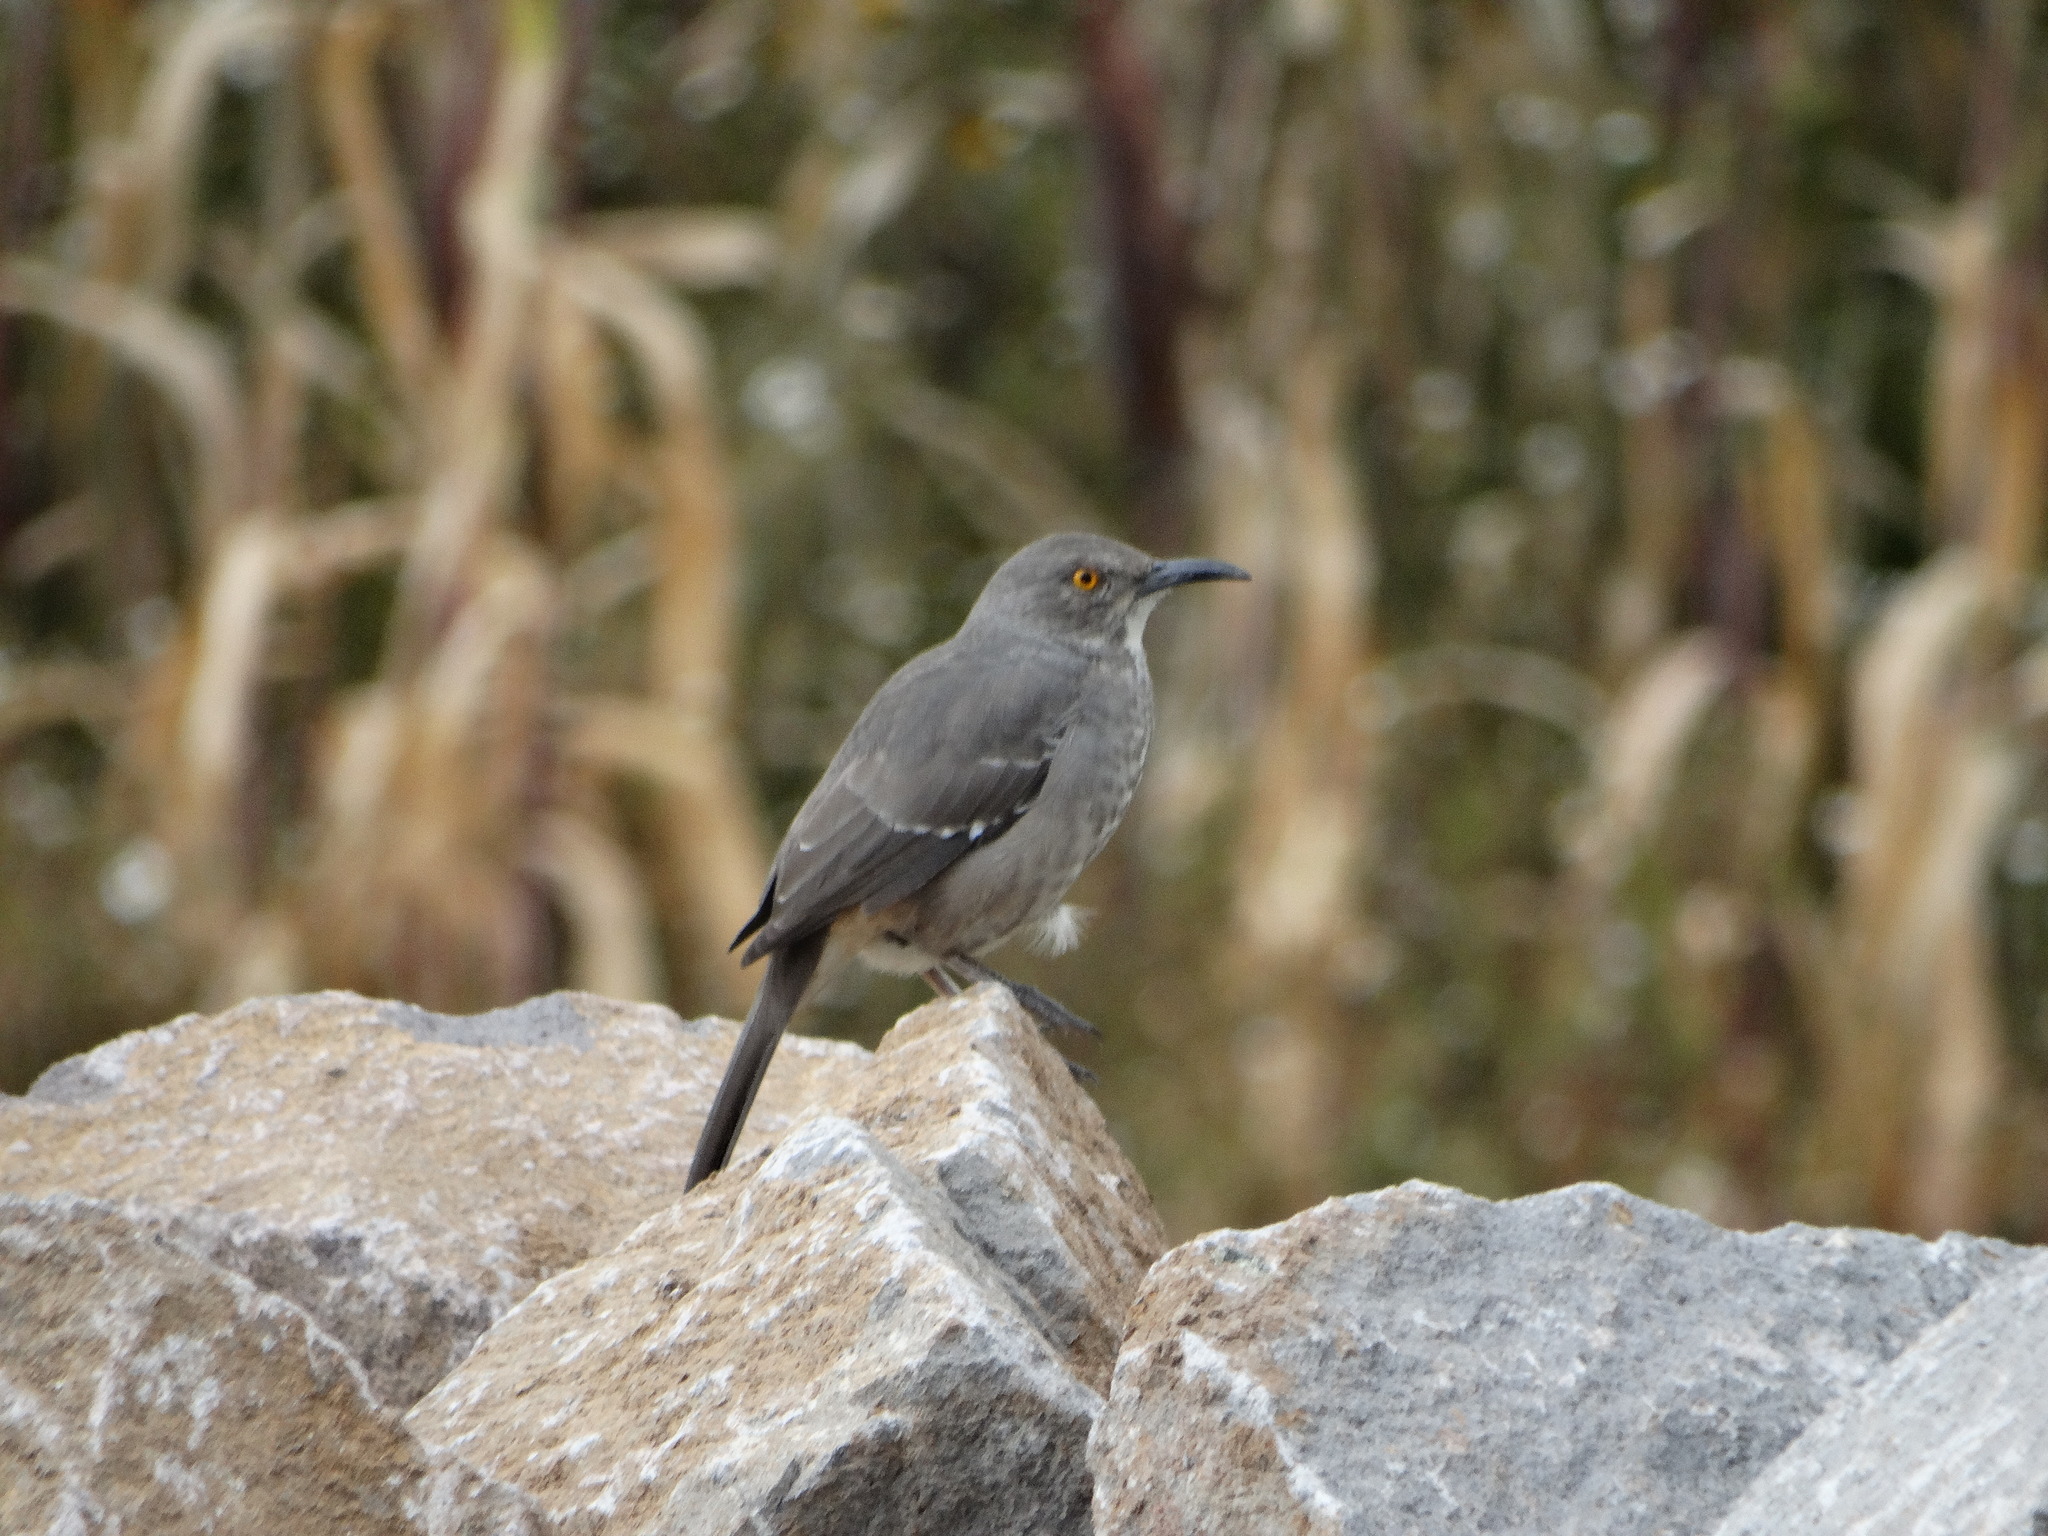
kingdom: Animalia
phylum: Chordata
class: Aves
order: Passeriformes
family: Mimidae
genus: Toxostoma
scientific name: Toxostoma curvirostre
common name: Curve-billed thrasher
